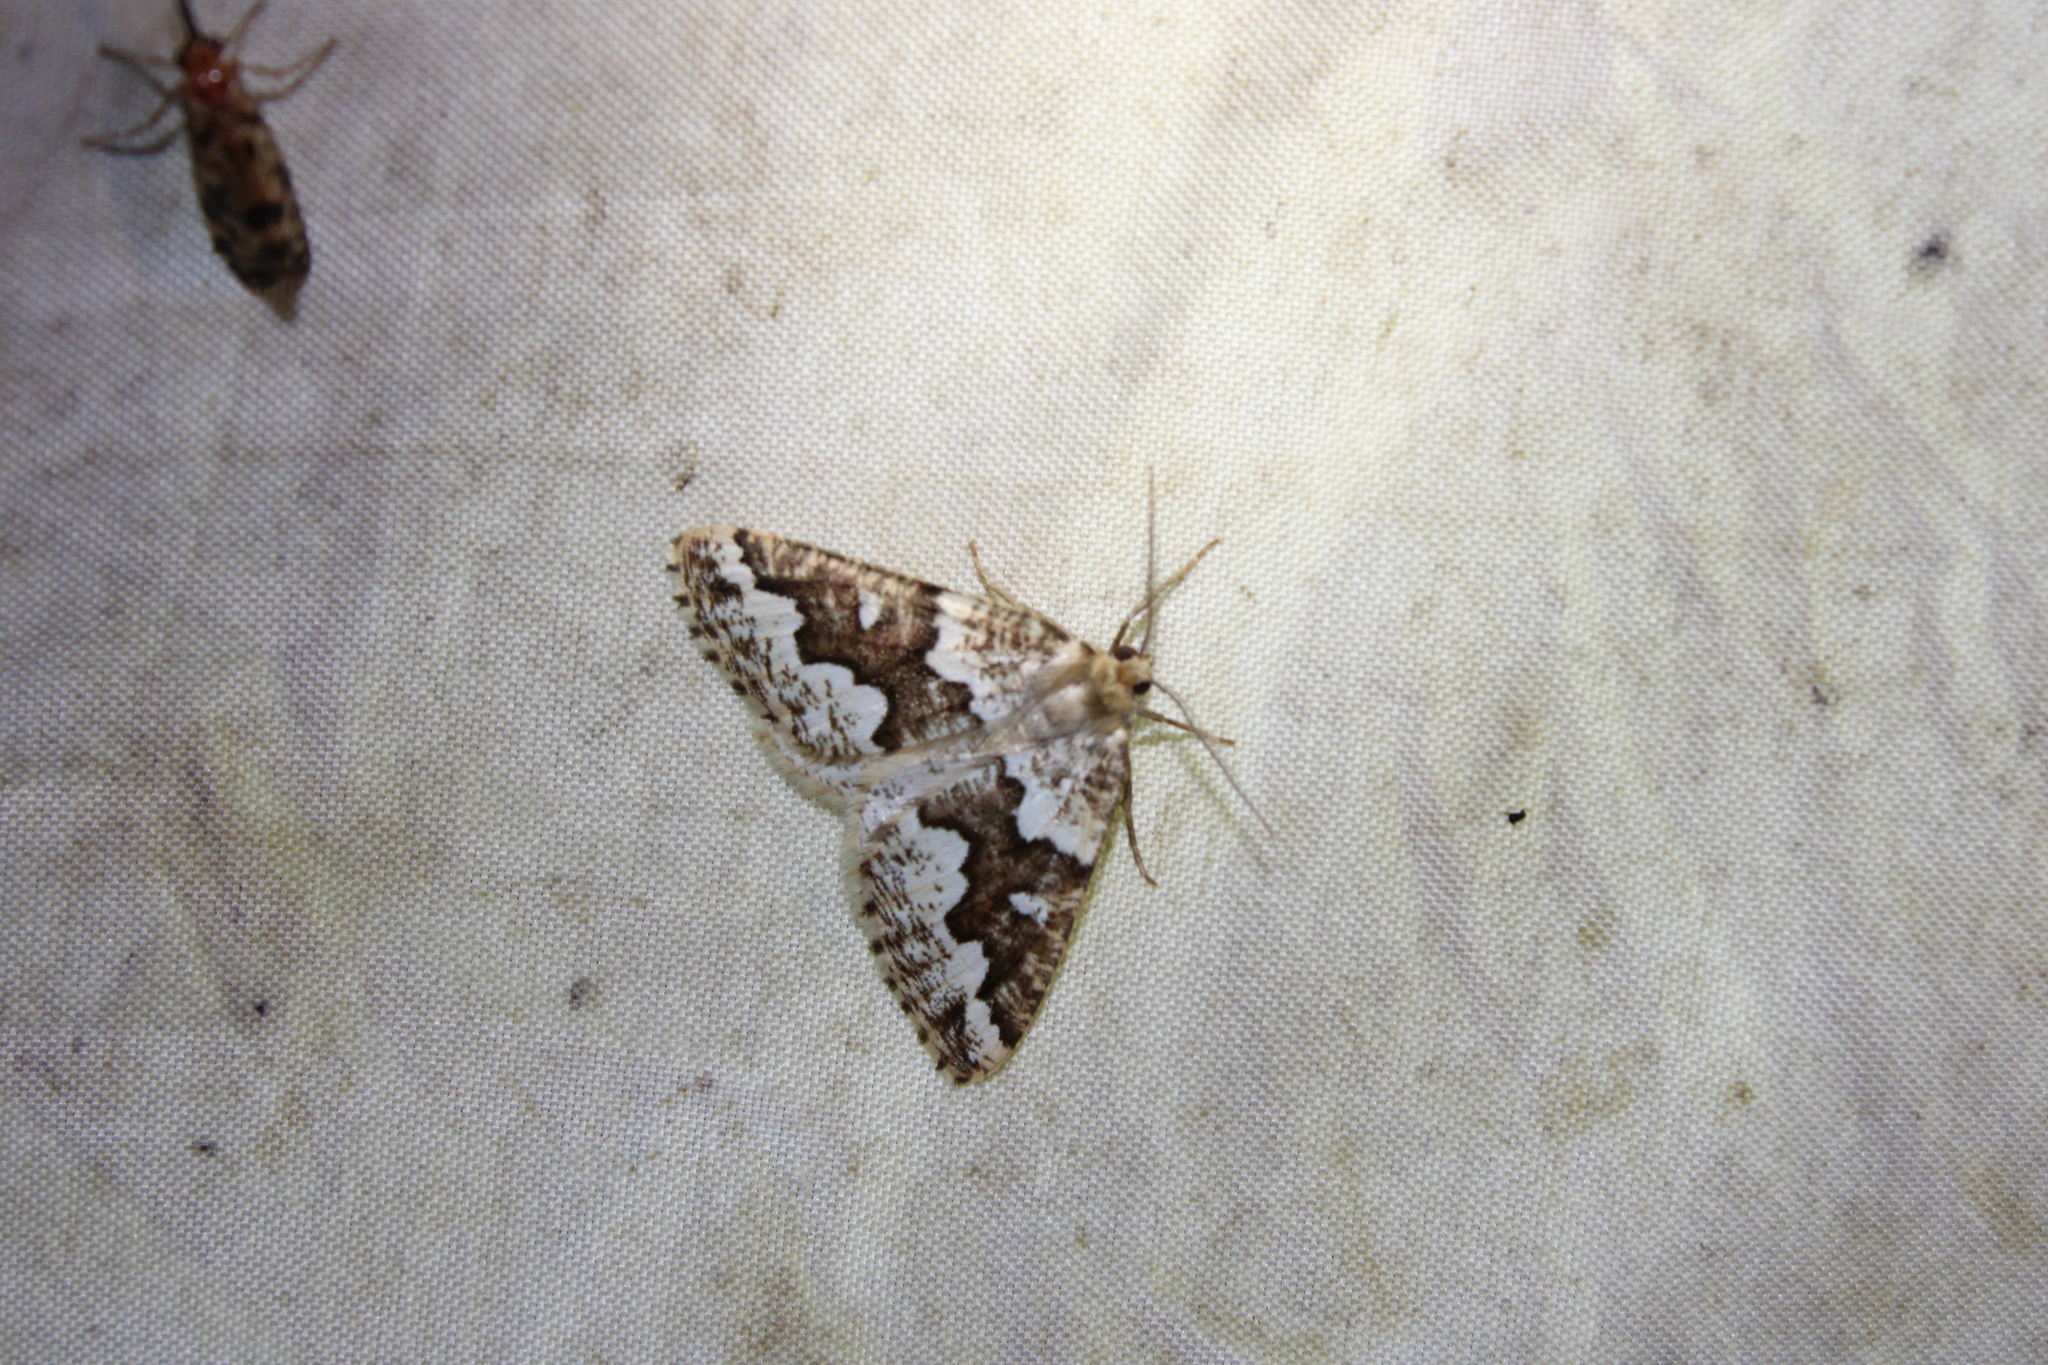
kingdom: Animalia
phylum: Arthropoda
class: Insecta
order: Lepidoptera
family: Geometridae
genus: Caripeta
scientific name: Caripeta divisata
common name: Gray spruce looper
